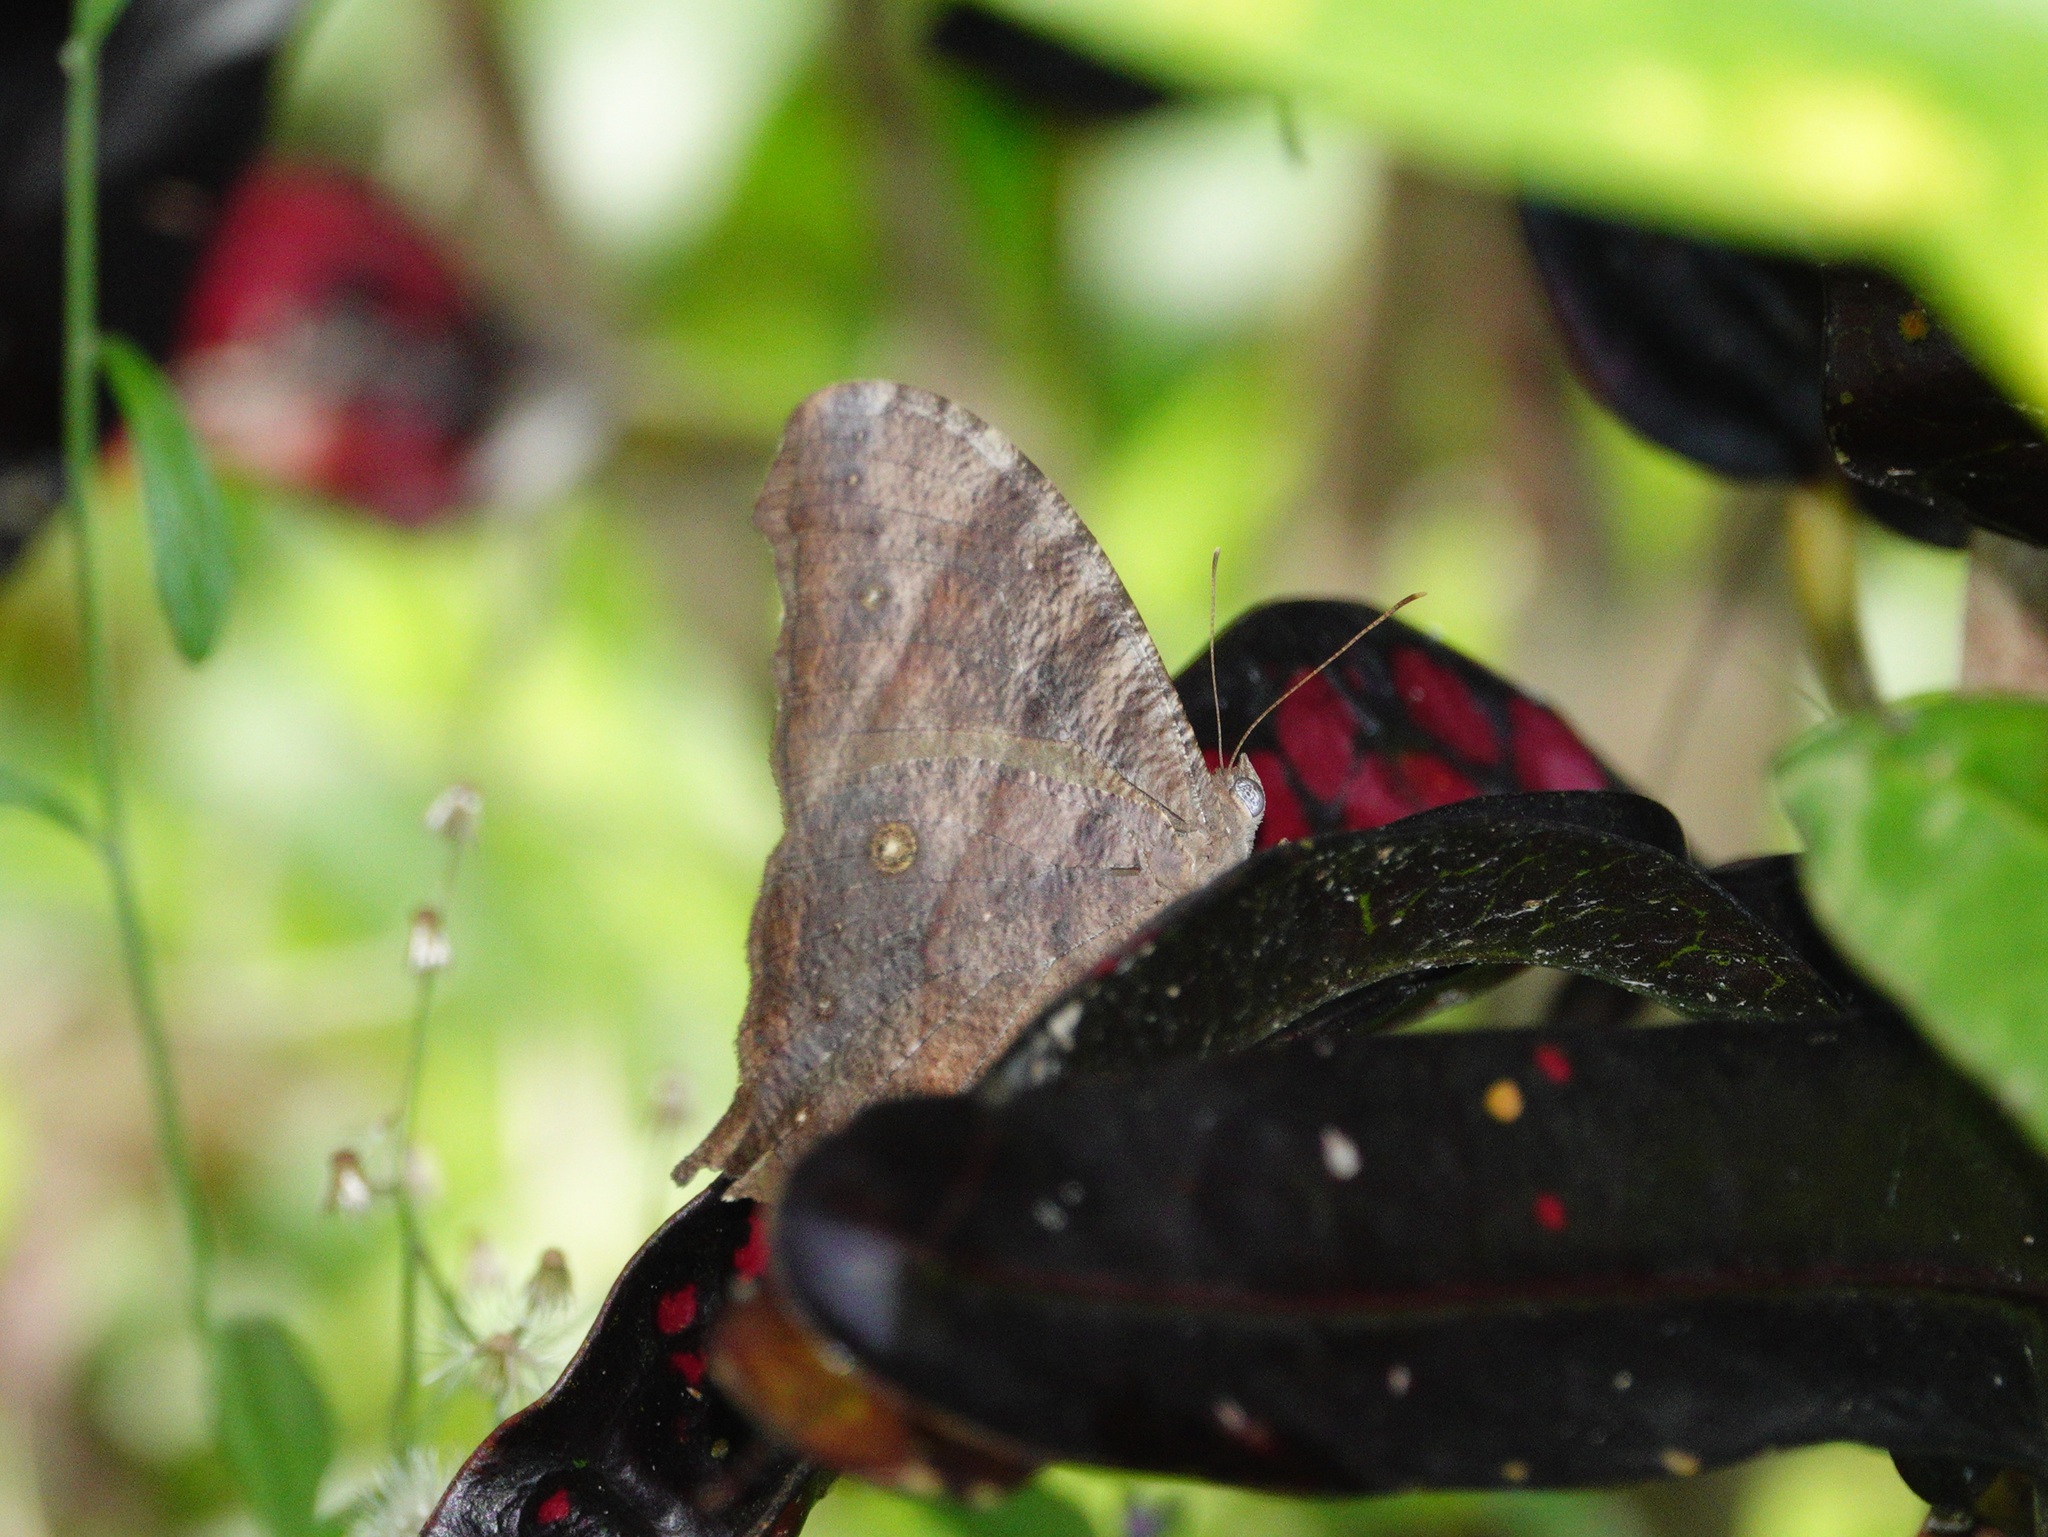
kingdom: Animalia
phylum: Arthropoda
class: Insecta
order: Lepidoptera
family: Nymphalidae
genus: Melanitis
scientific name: Melanitis leda
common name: Twilight brown
